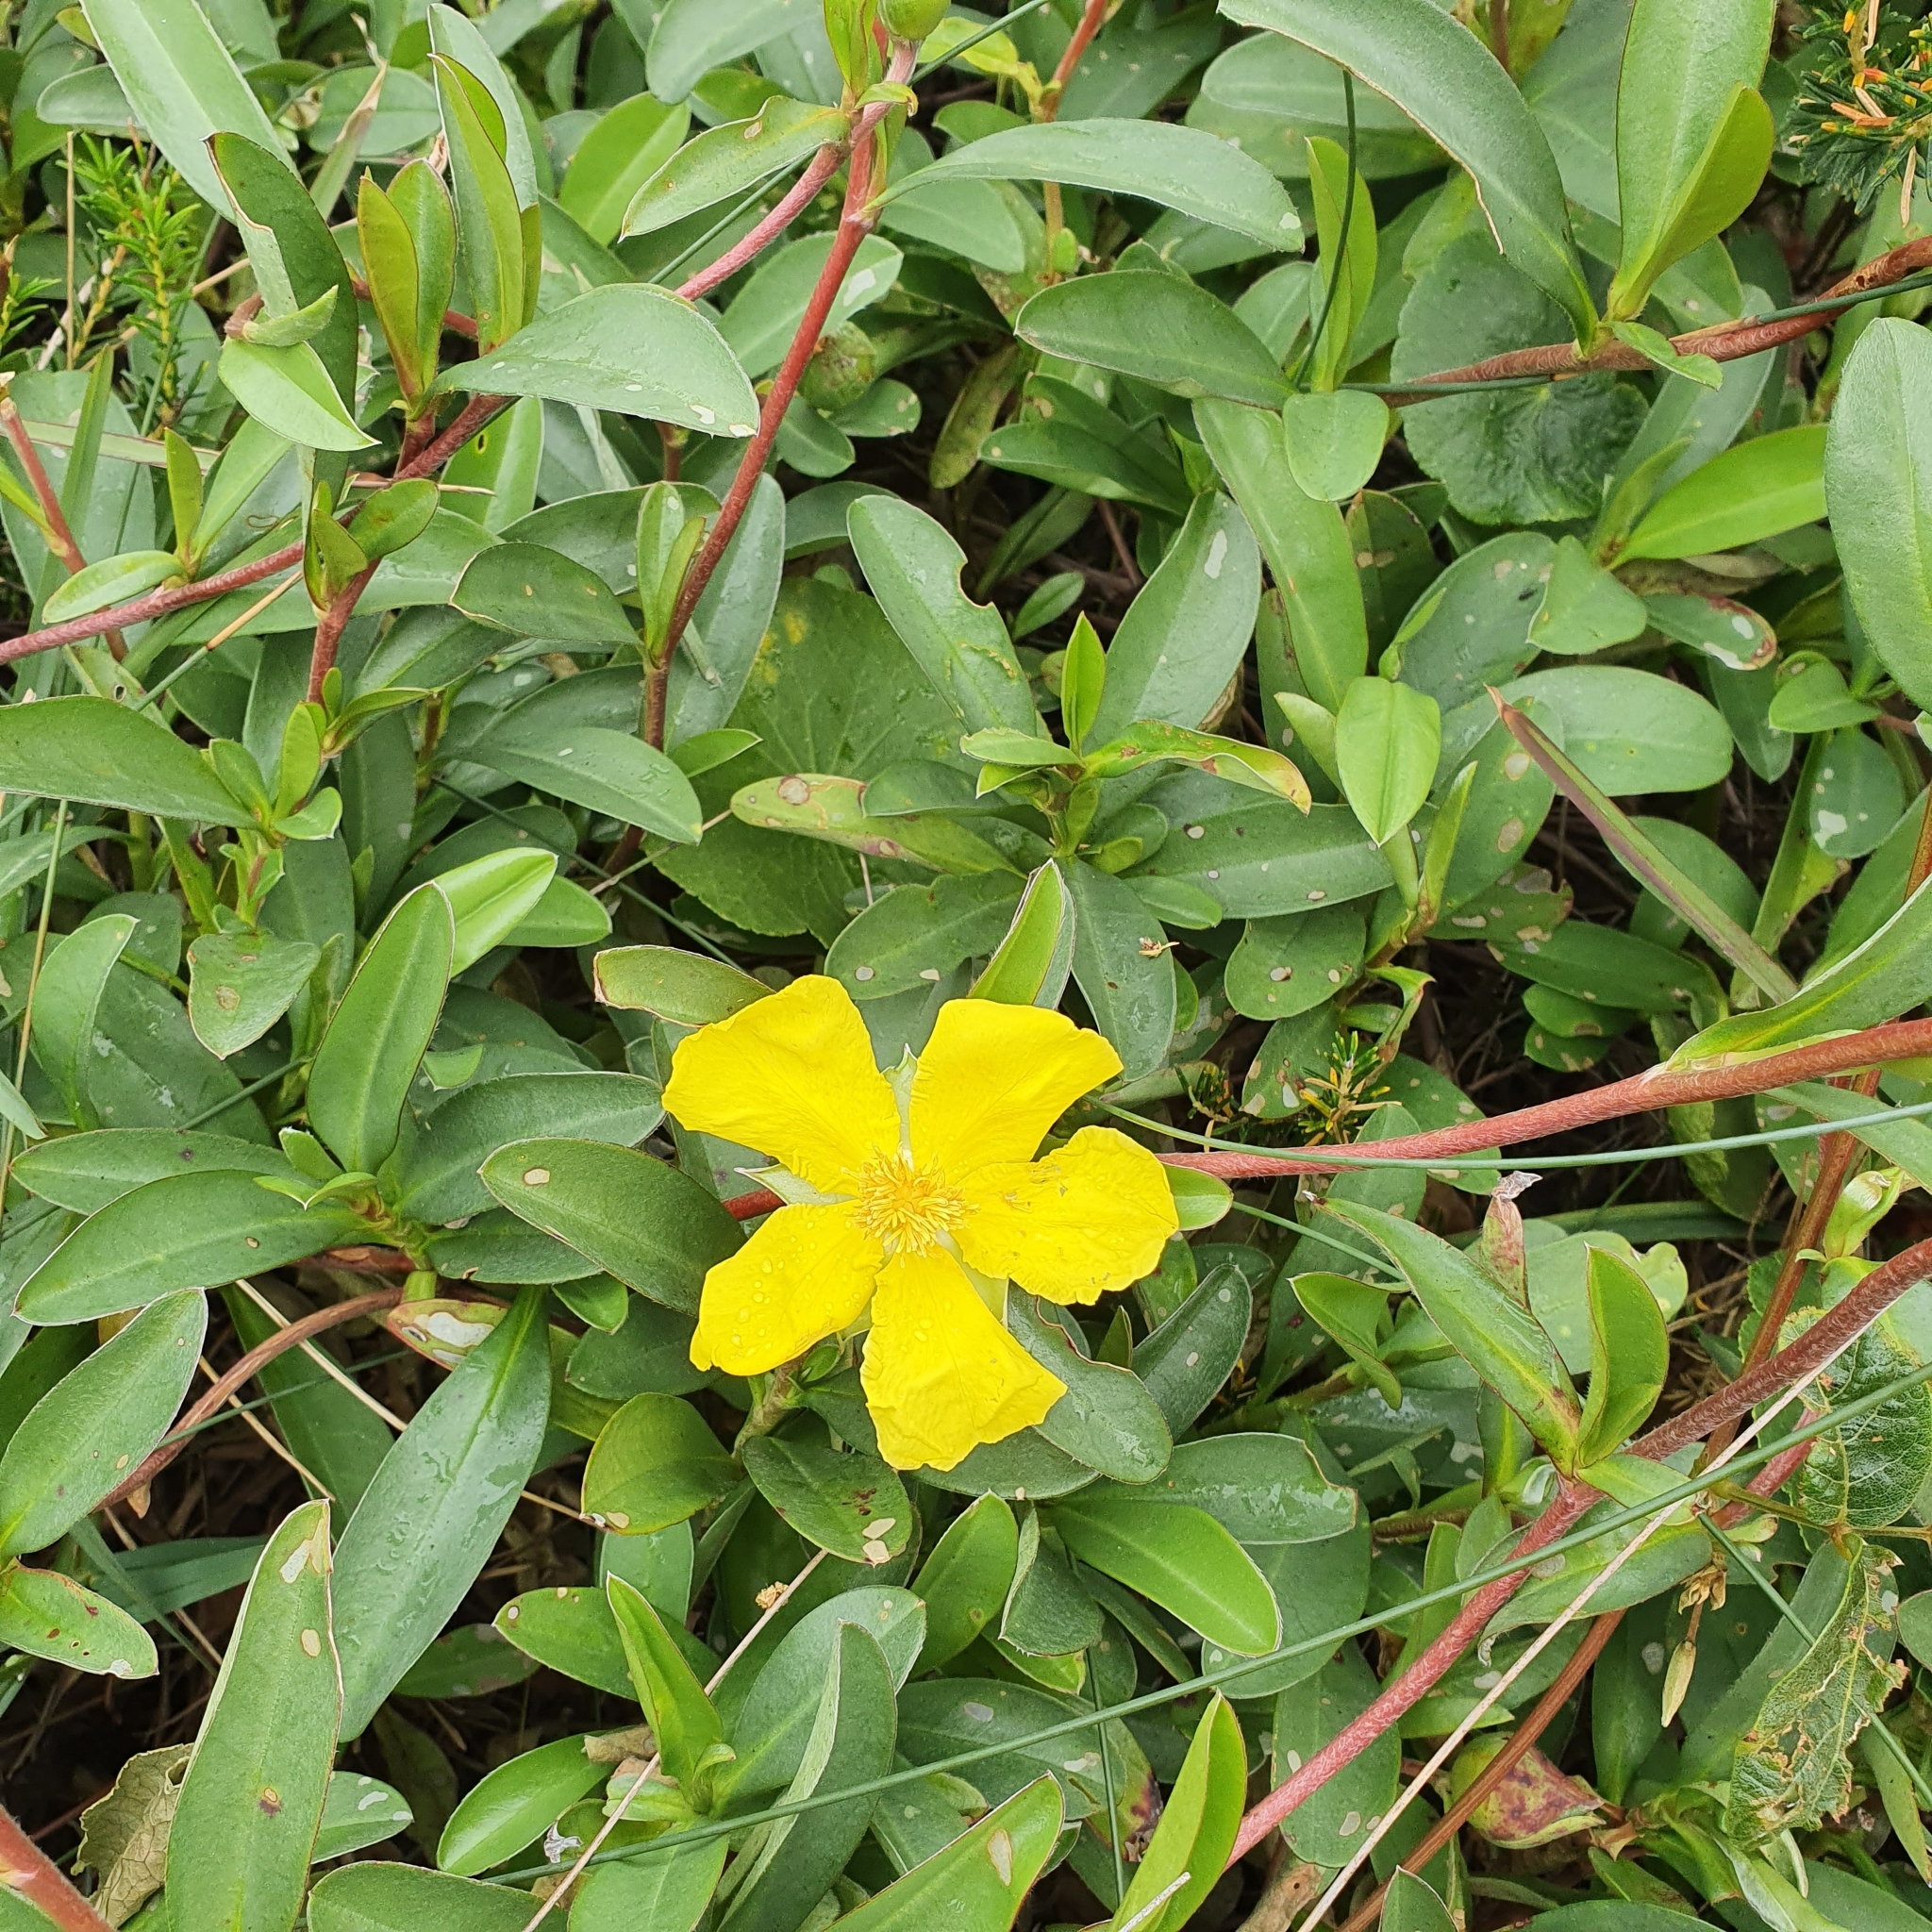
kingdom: Plantae
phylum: Tracheophyta
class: Magnoliopsida
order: Dilleniales
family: Dilleniaceae
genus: Hibbertia
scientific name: Hibbertia scandens
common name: Climbing guinea-flower
